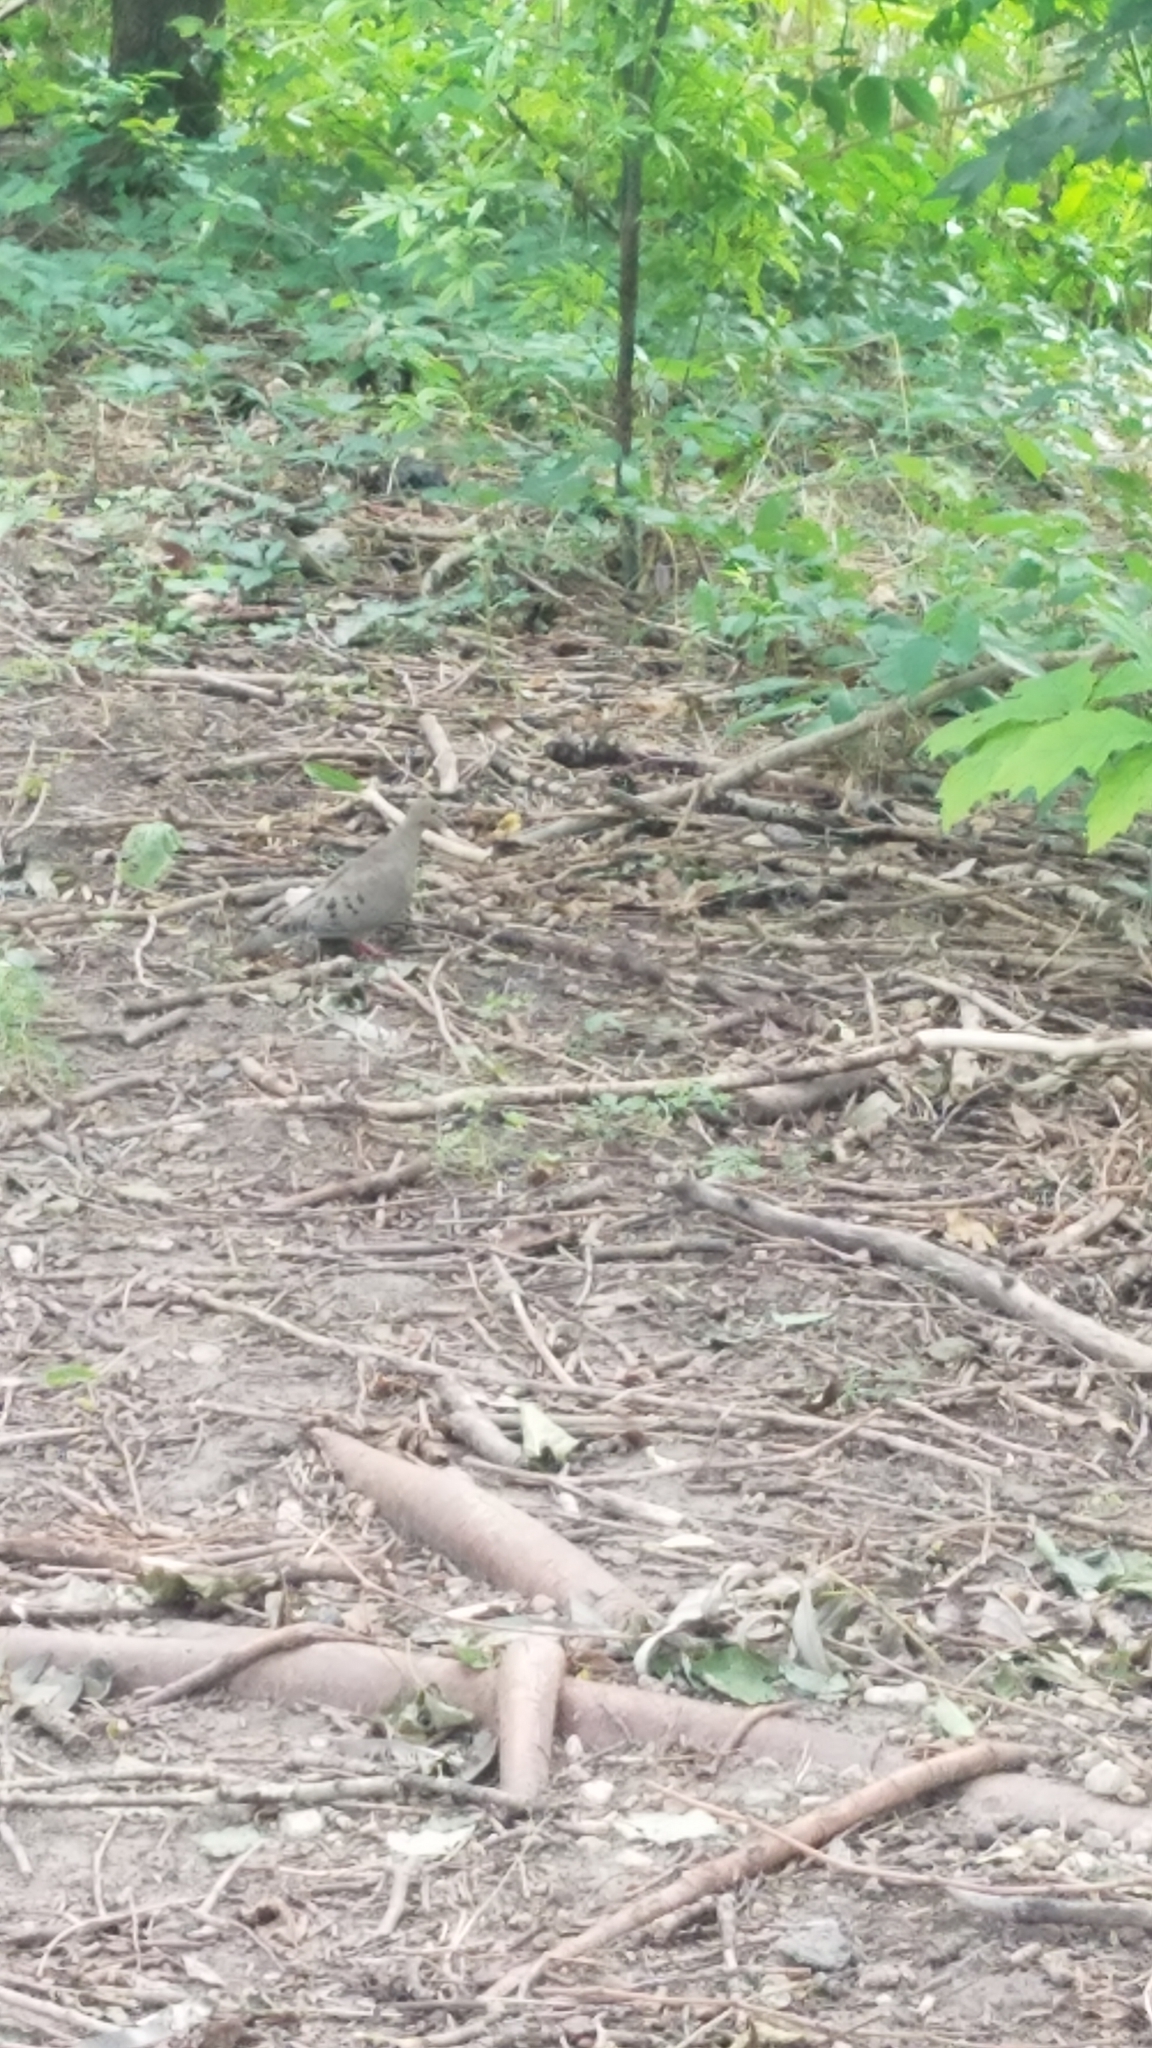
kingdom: Animalia
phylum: Chordata
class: Aves
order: Columbiformes
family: Columbidae
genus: Zenaida
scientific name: Zenaida macroura
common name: Mourning dove
